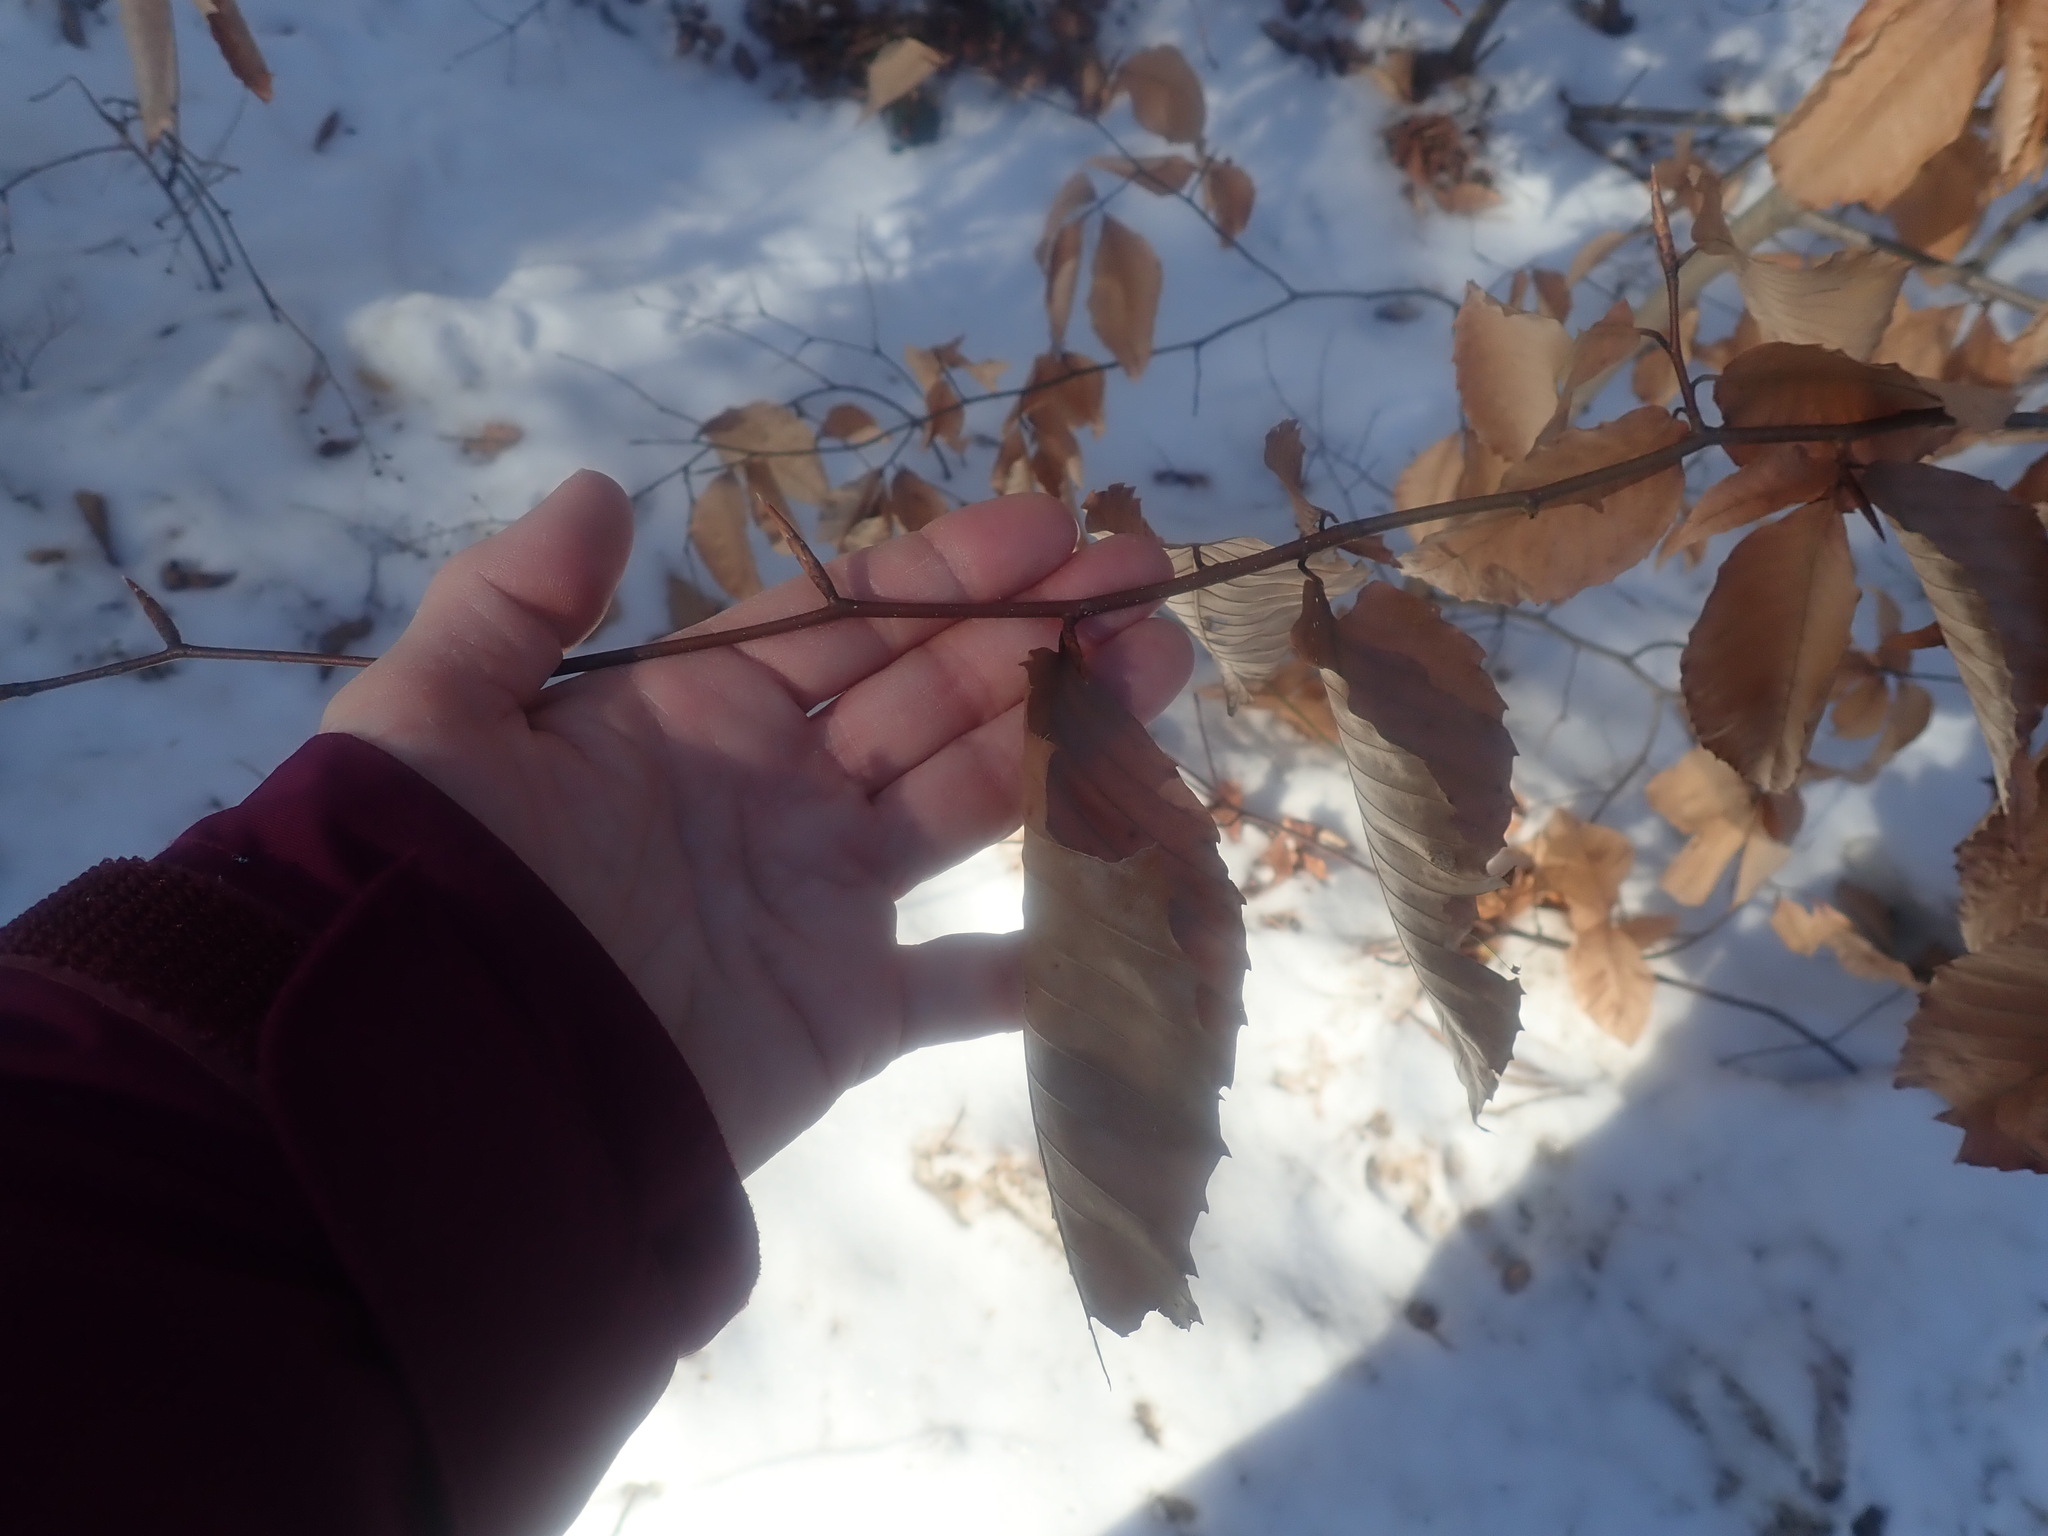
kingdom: Plantae
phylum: Tracheophyta
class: Magnoliopsida
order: Fagales
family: Fagaceae
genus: Fagus
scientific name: Fagus grandifolia
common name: American beech
